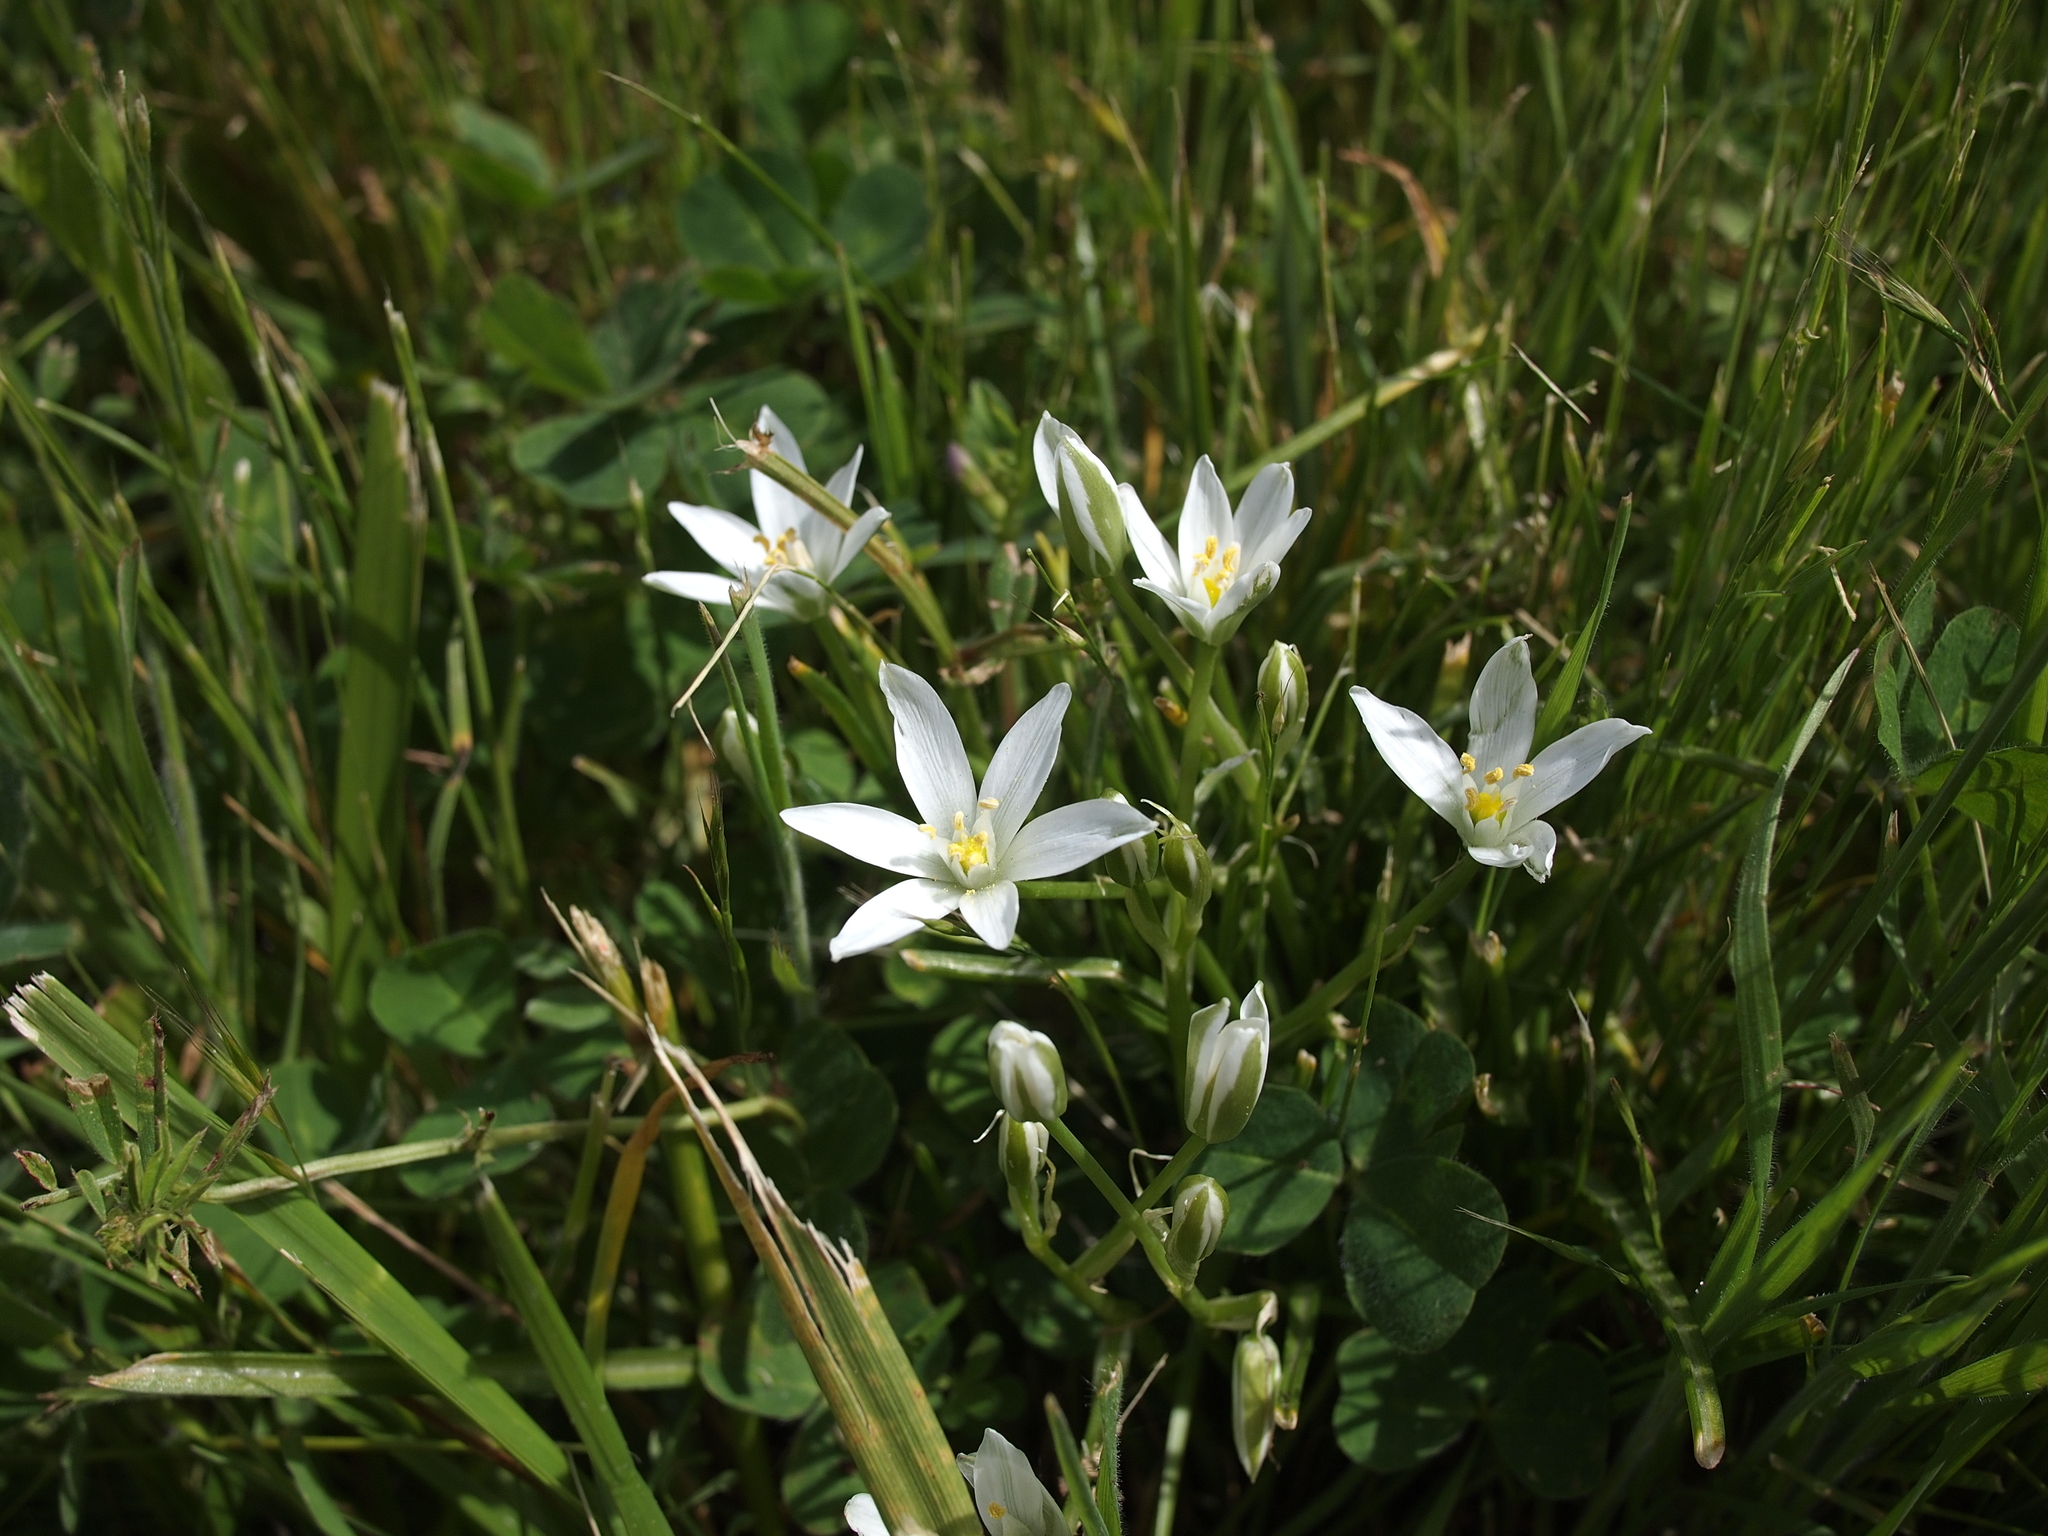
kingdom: Plantae
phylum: Tracheophyta
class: Liliopsida
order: Asparagales
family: Asparagaceae
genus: Ornithogalum
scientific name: Ornithogalum umbellatum
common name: Garden star-of-bethlehem
